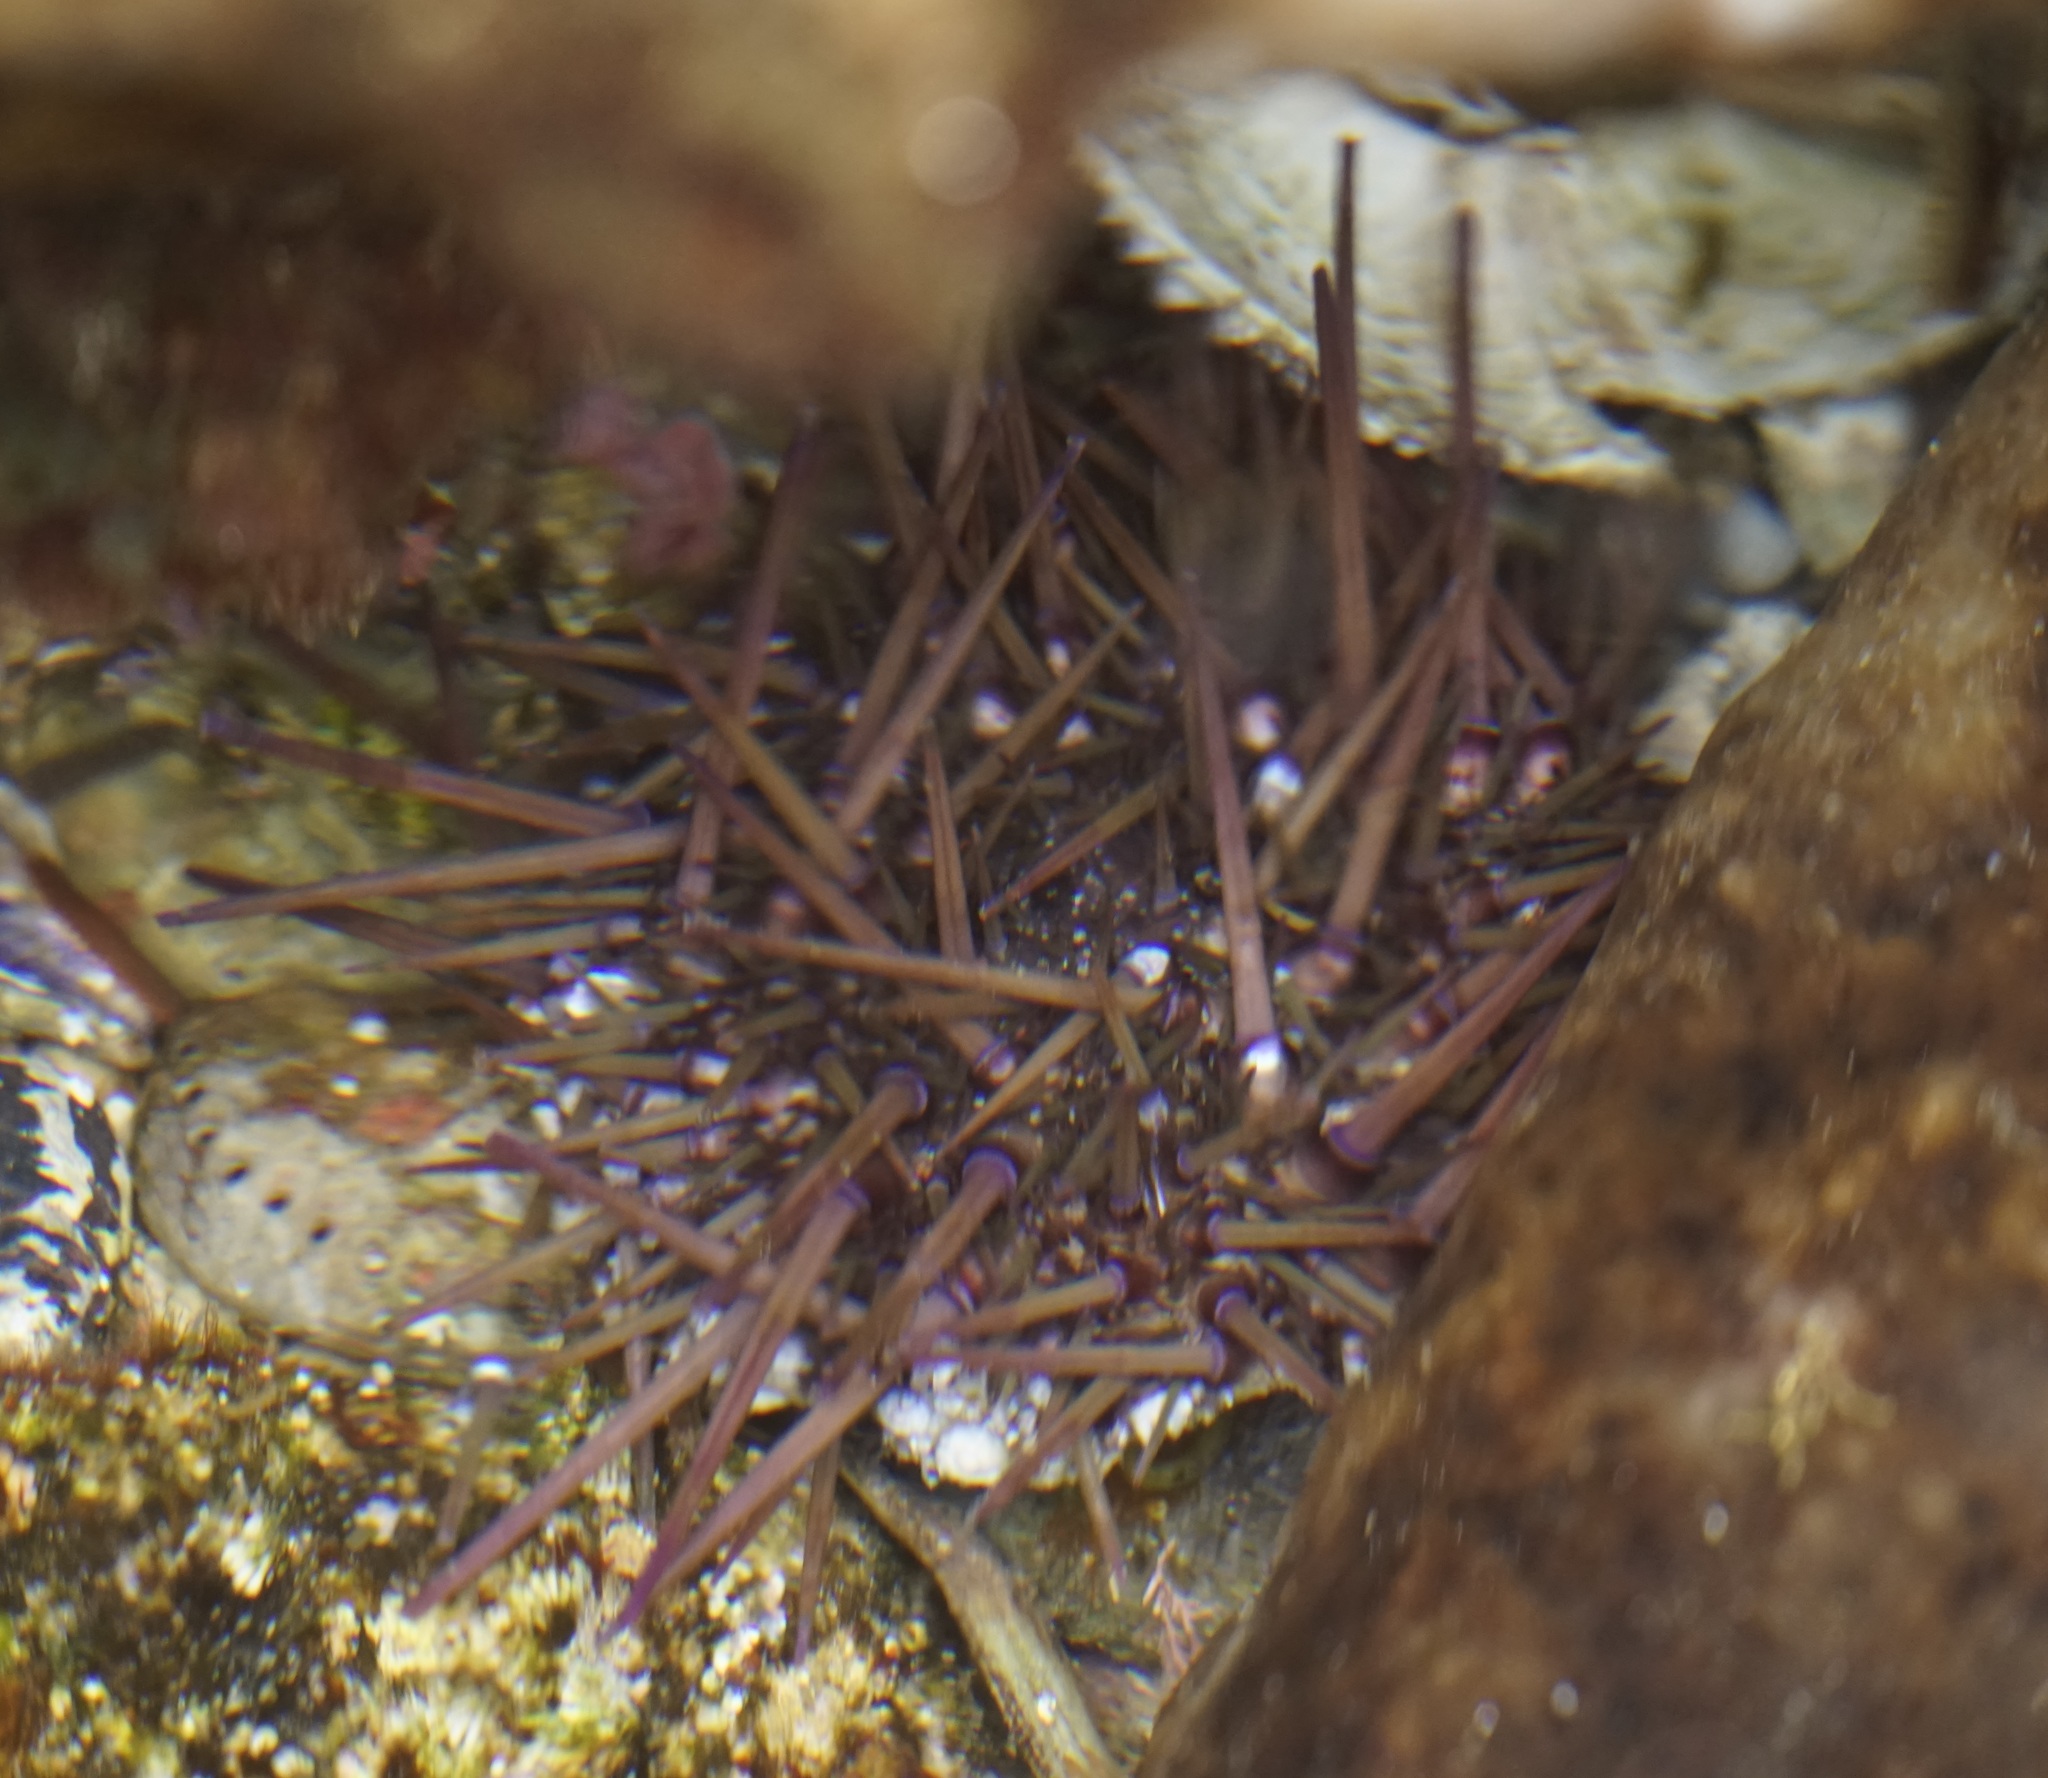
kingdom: Animalia
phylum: Echinodermata
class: Echinoidea
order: Camarodonta
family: Echinometridae
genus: Heliocidaris
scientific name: Heliocidaris erythrogramma
